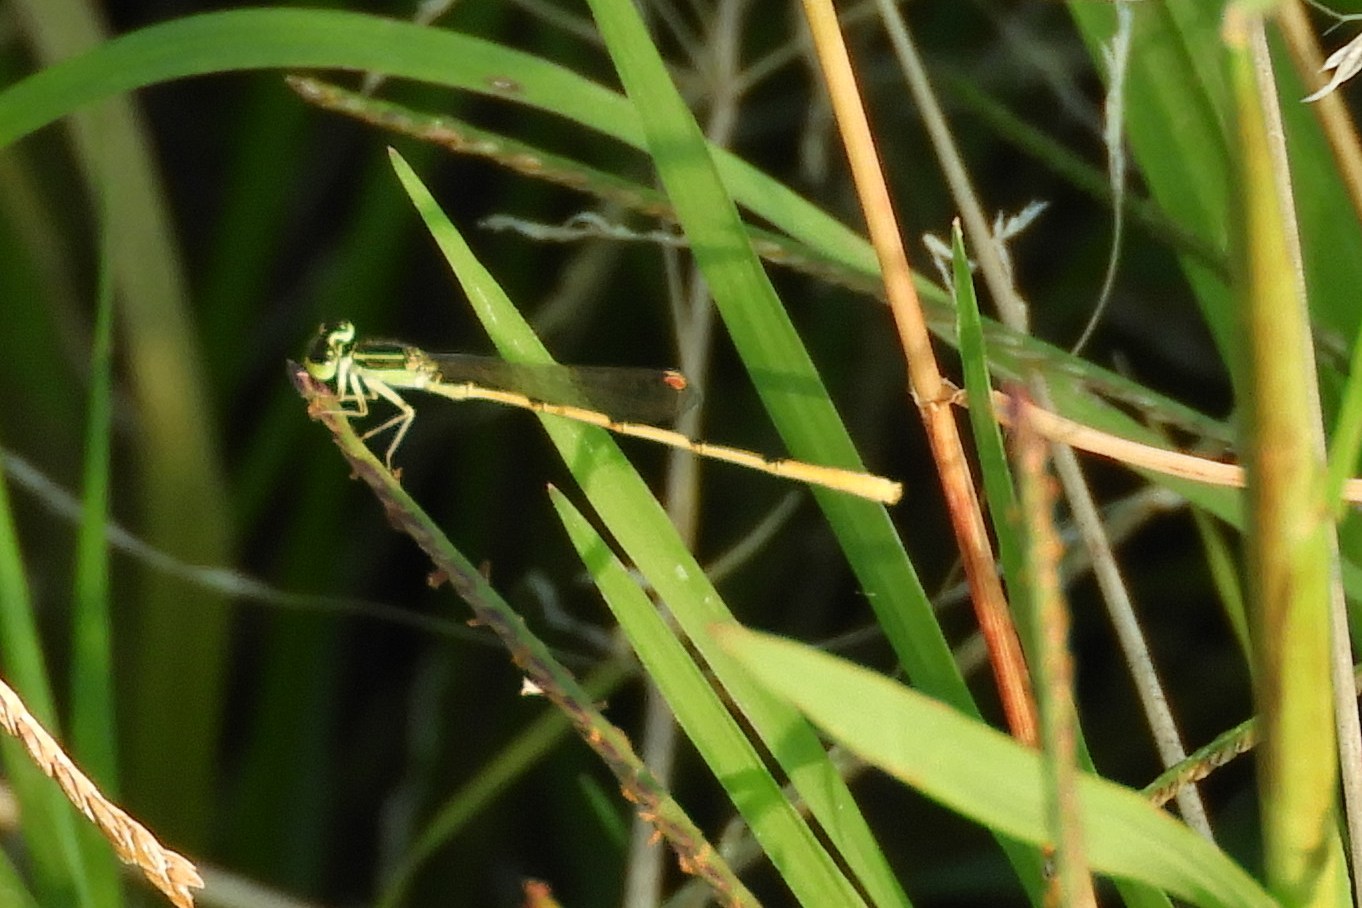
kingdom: Animalia
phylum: Arthropoda
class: Insecta
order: Odonata
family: Coenagrionidae
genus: Ischnura
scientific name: Ischnura hastata
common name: Citrine forktail
